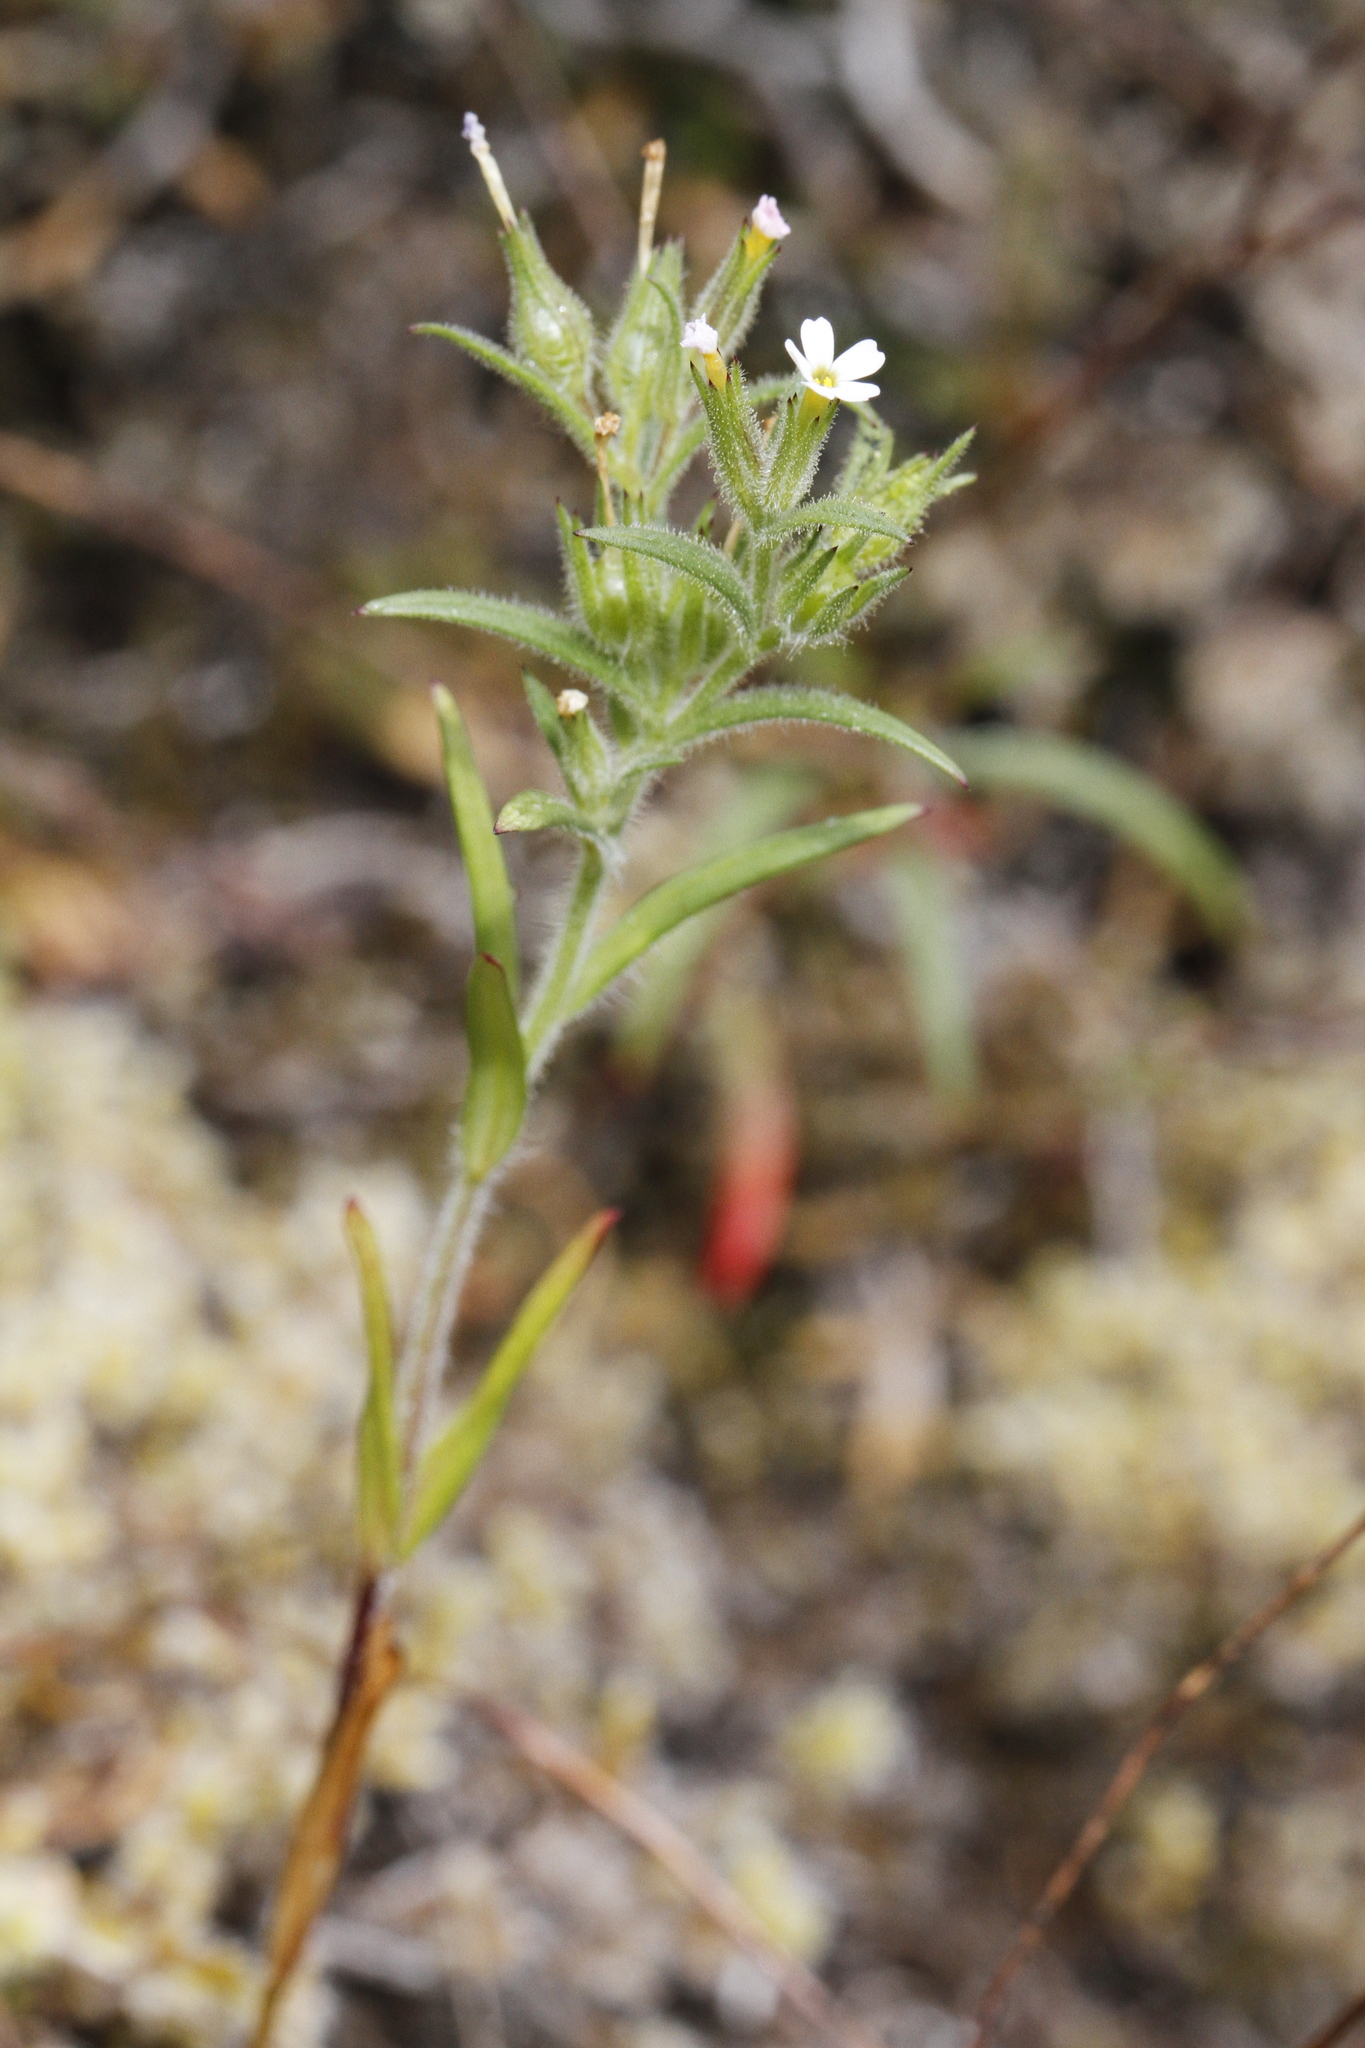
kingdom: Plantae
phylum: Tracheophyta
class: Magnoliopsida
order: Ericales
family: Polemoniaceae
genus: Phlox
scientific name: Phlox gracilis
